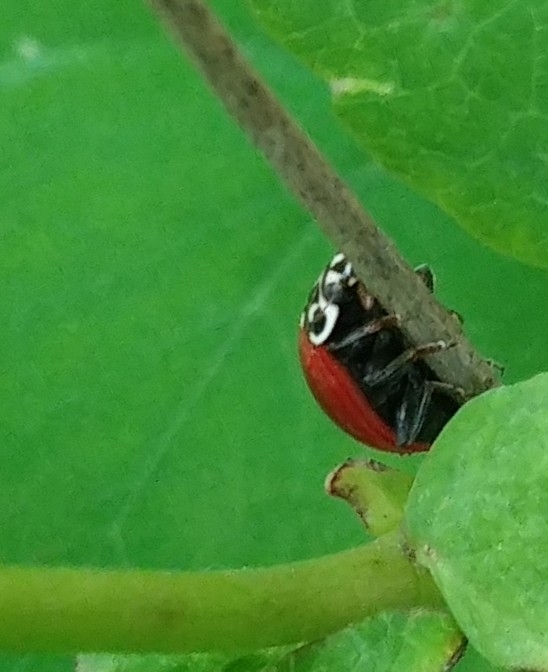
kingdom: Animalia
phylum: Arthropoda
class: Insecta
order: Coleoptera
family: Coccinellidae
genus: Cycloneda
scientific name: Cycloneda polita
